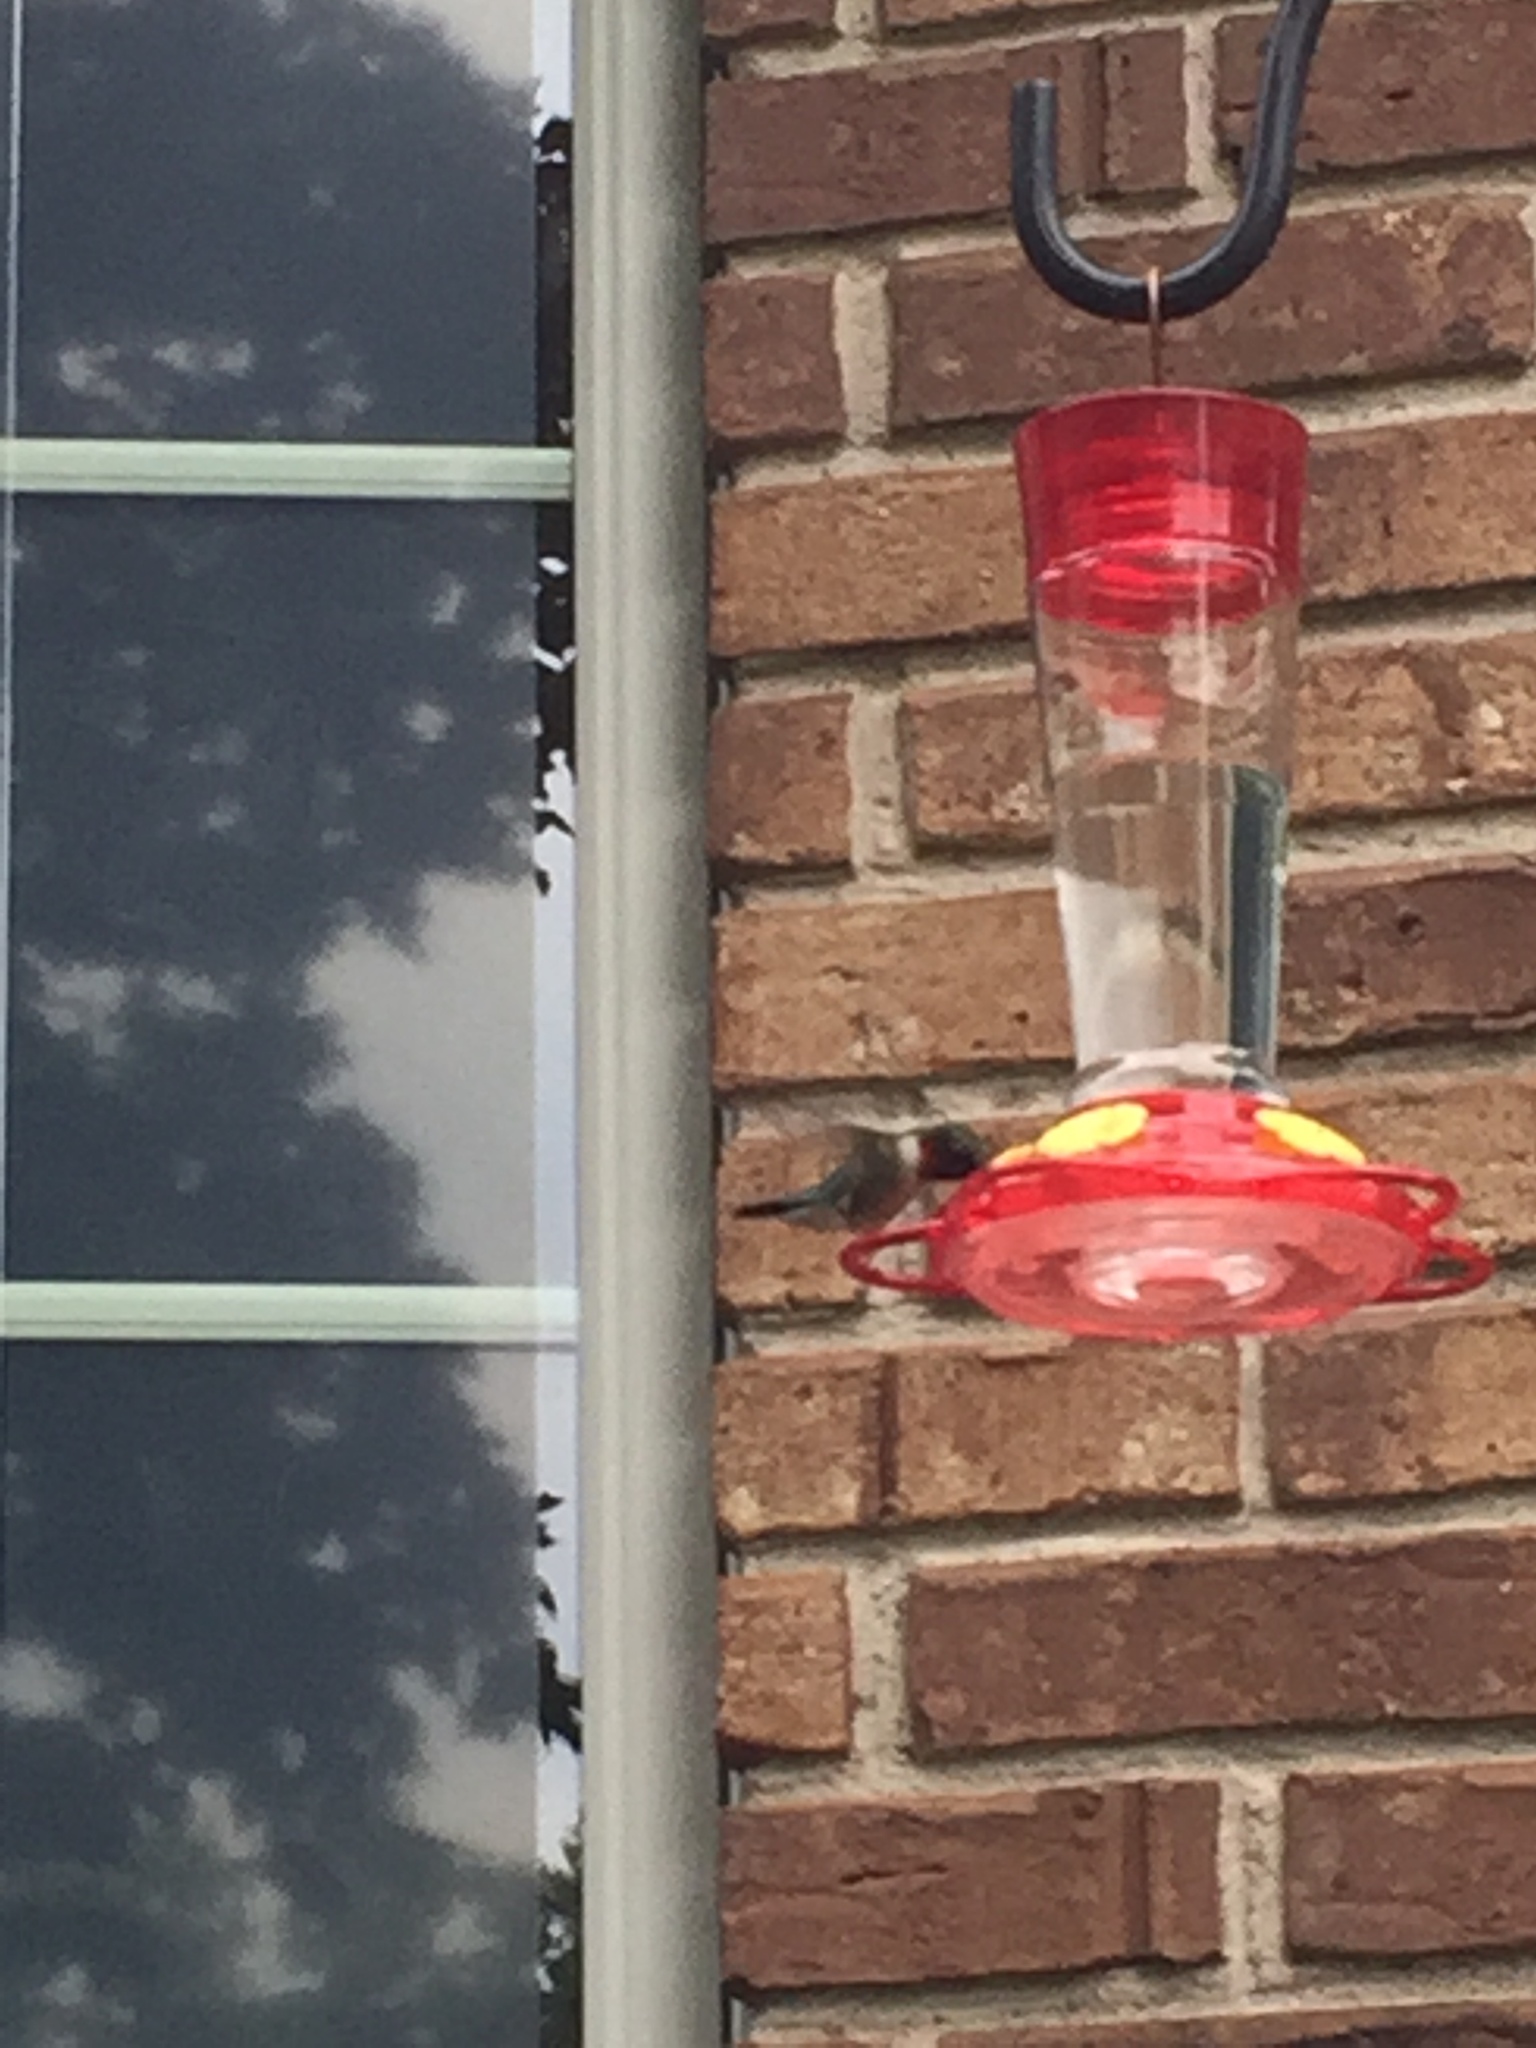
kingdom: Animalia
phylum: Chordata
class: Aves
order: Apodiformes
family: Trochilidae
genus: Archilochus
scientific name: Archilochus colubris
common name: Ruby-throated hummingbird
